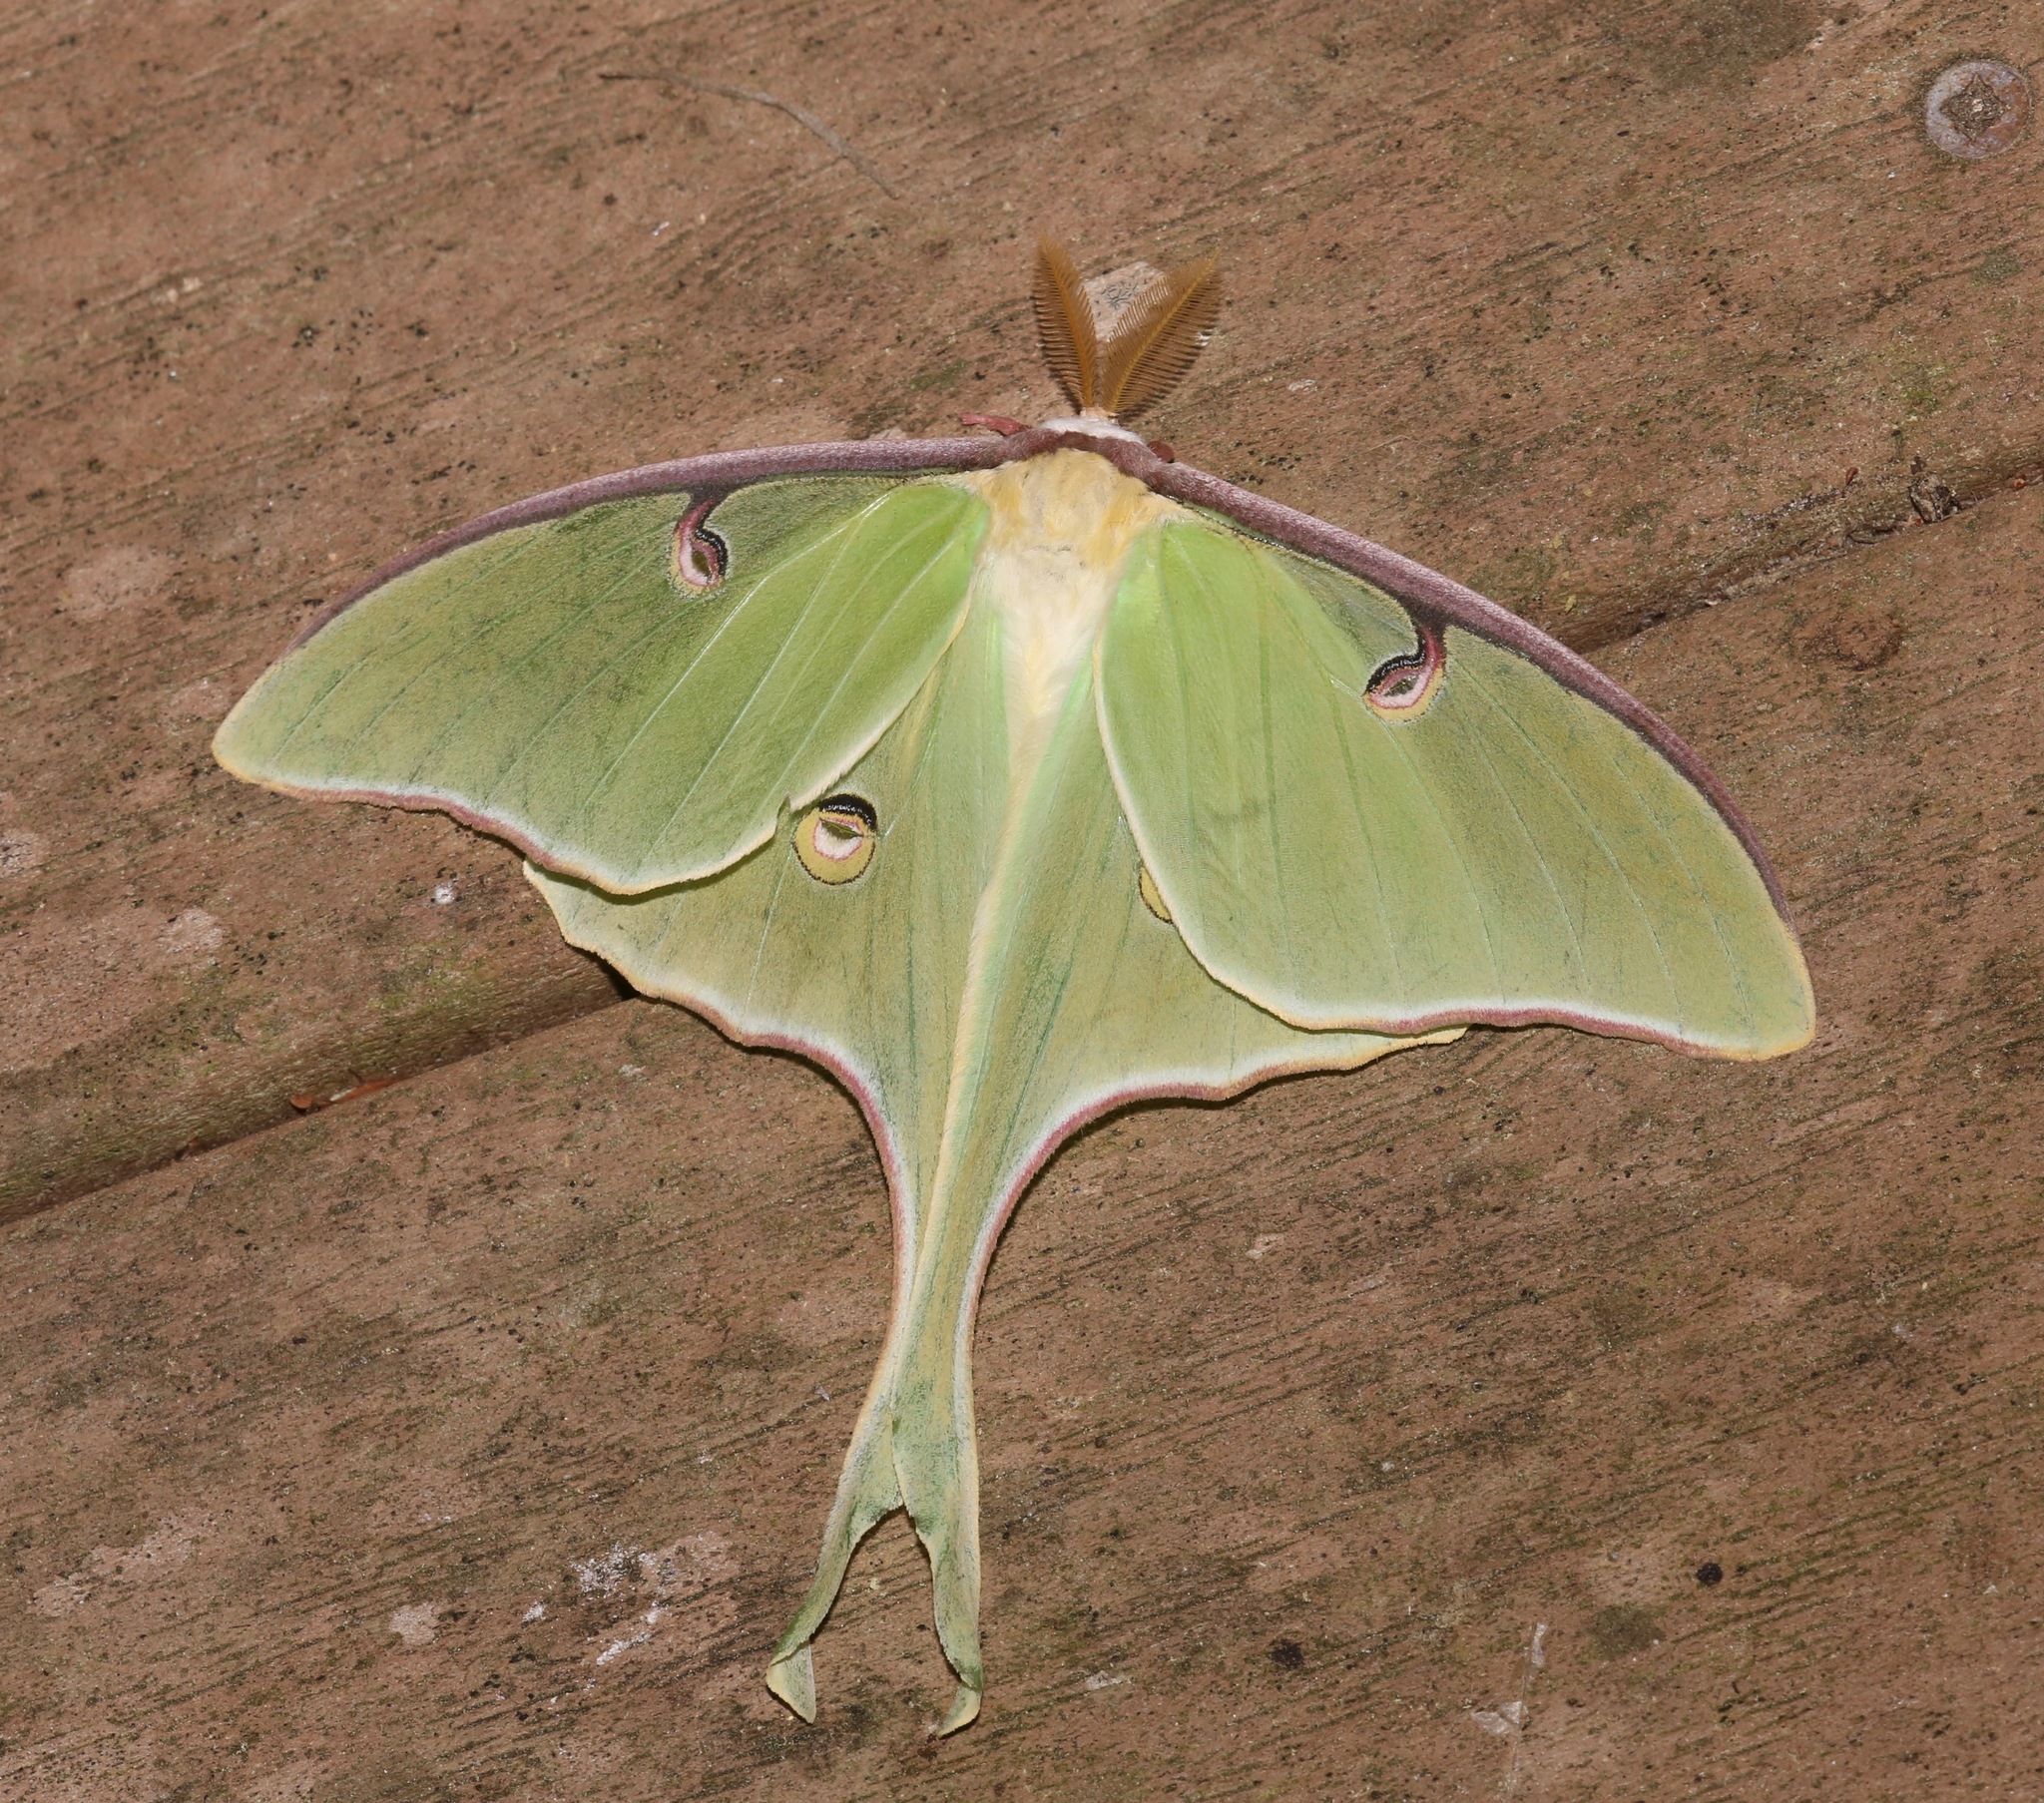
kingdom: Animalia
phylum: Arthropoda
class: Insecta
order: Lepidoptera
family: Saturniidae
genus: Actias
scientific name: Actias luna
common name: Luna moth
